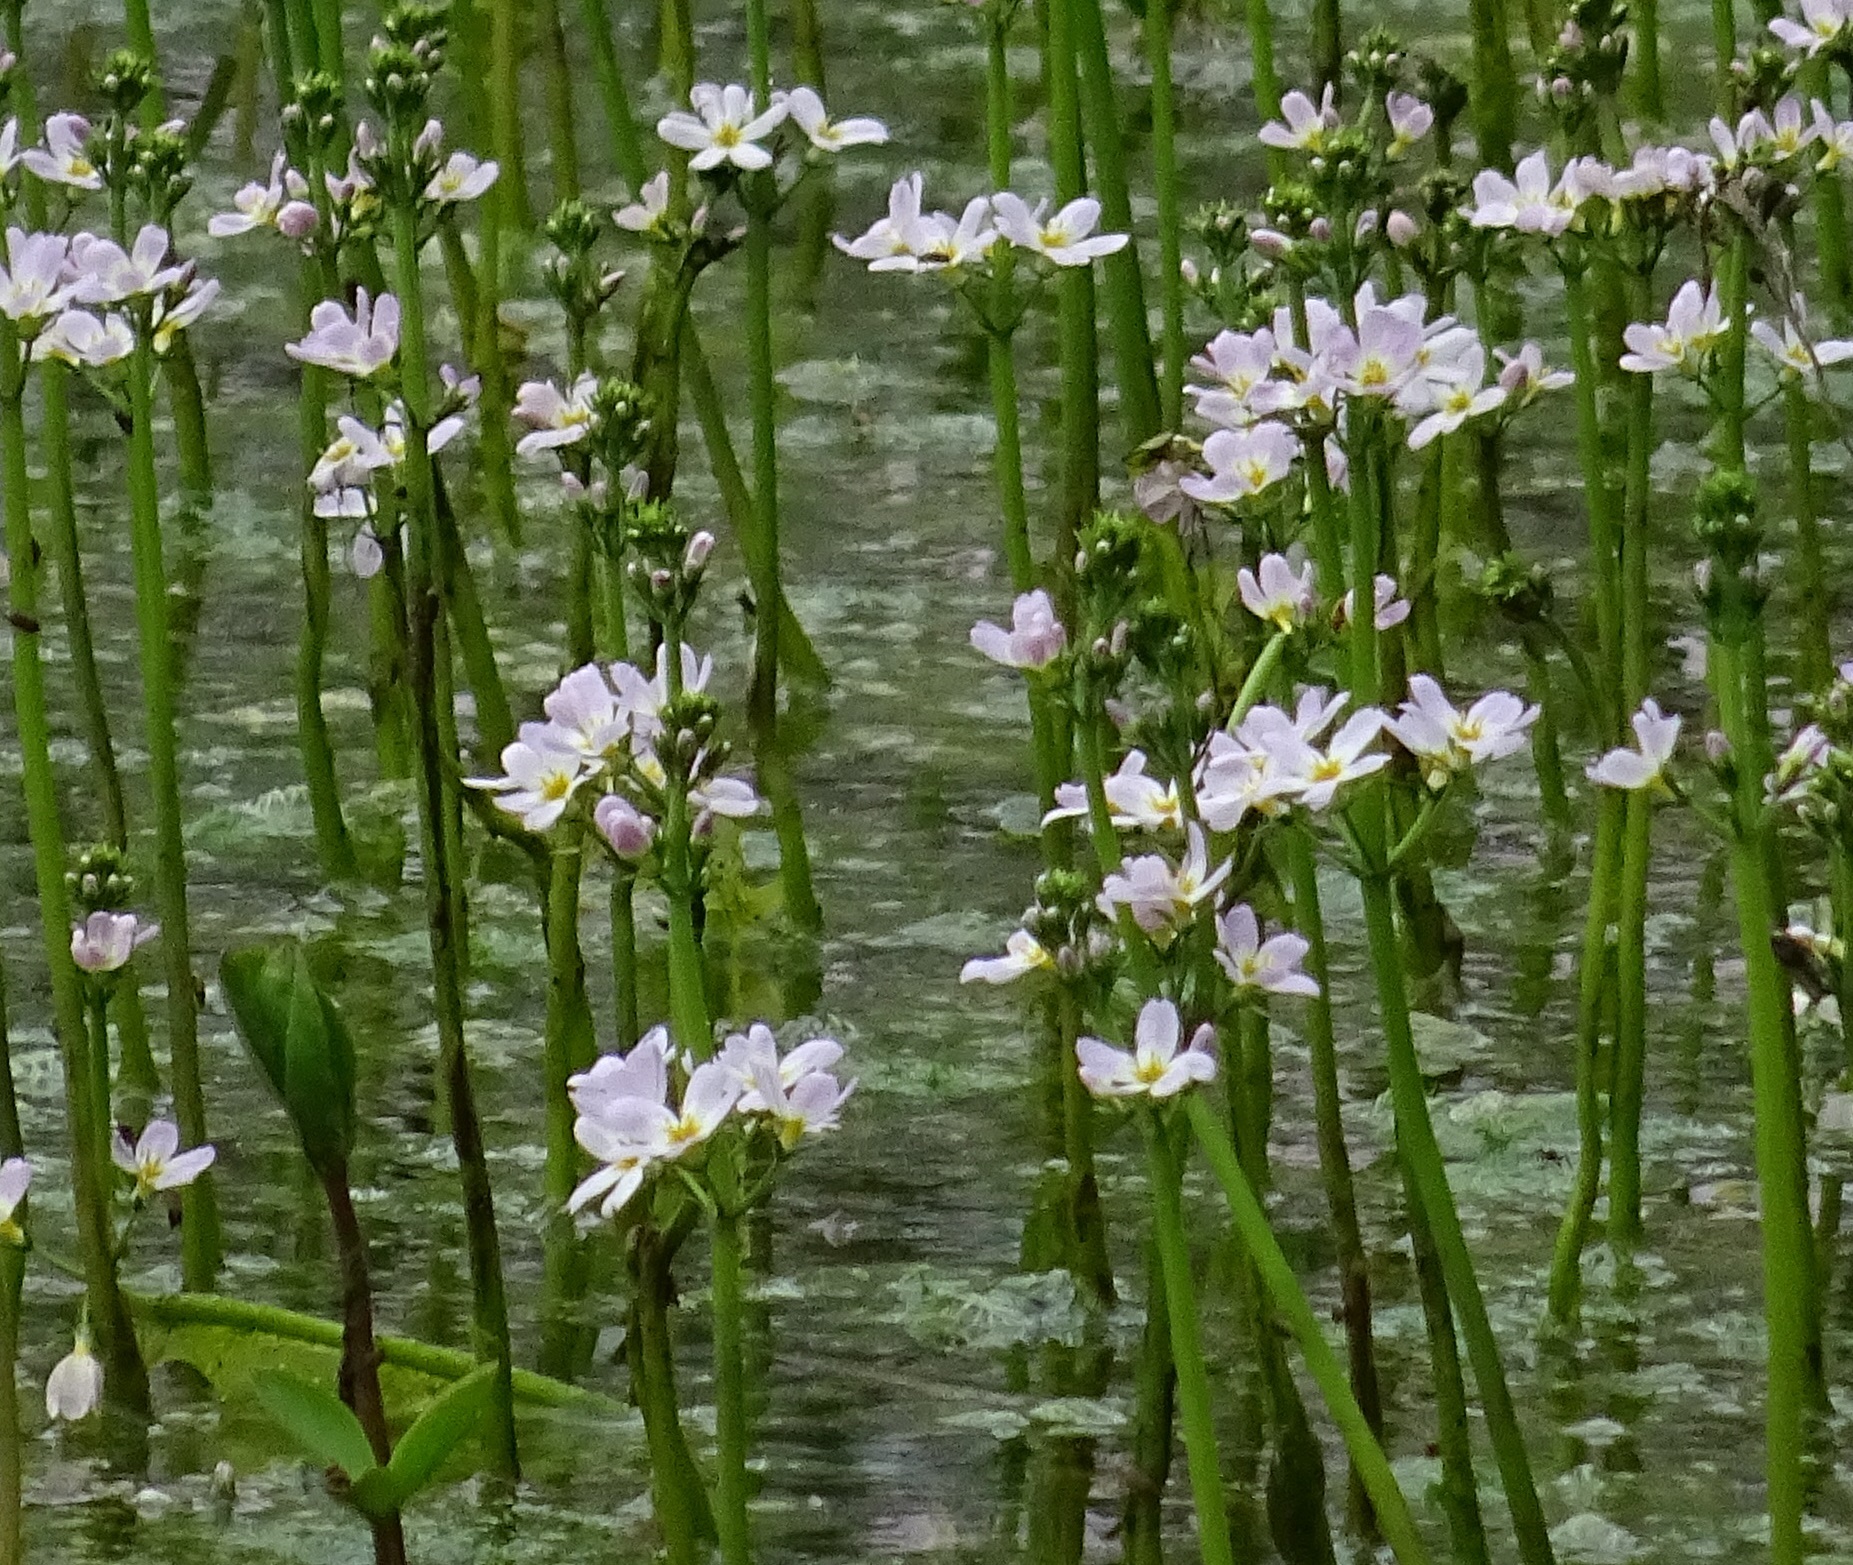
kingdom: Plantae
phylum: Tracheophyta
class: Magnoliopsida
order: Ericales
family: Primulaceae
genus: Hottonia
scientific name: Hottonia palustris
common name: Water-violet
